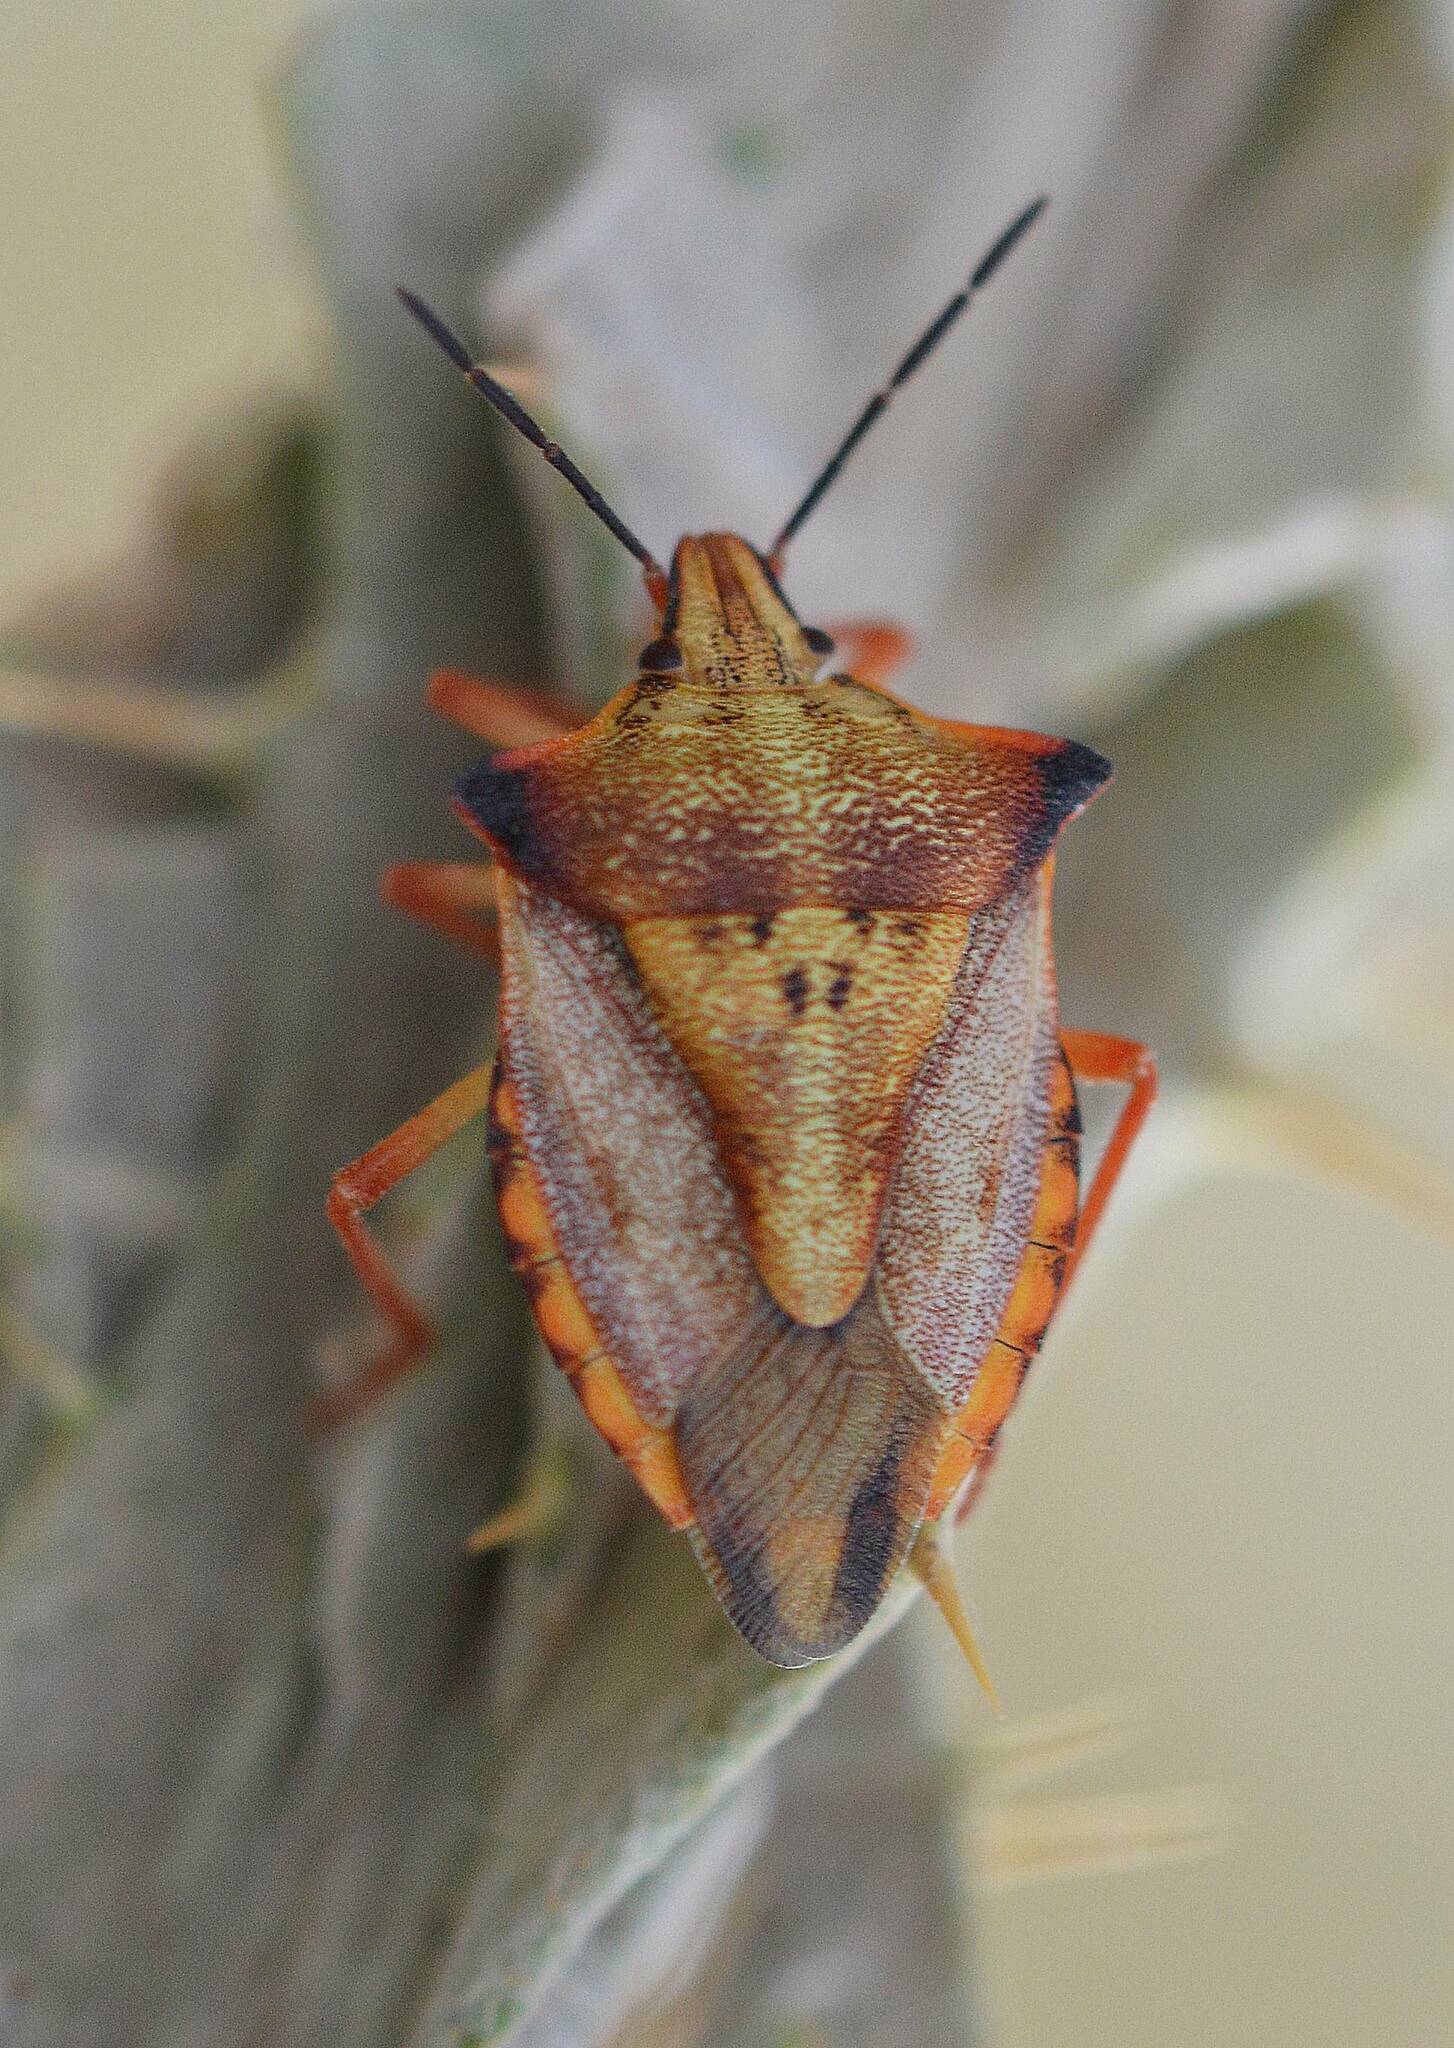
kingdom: Animalia
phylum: Arthropoda
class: Insecta
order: Hemiptera
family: Pentatomidae
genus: Carpocoris
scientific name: Carpocoris mediterraneus
